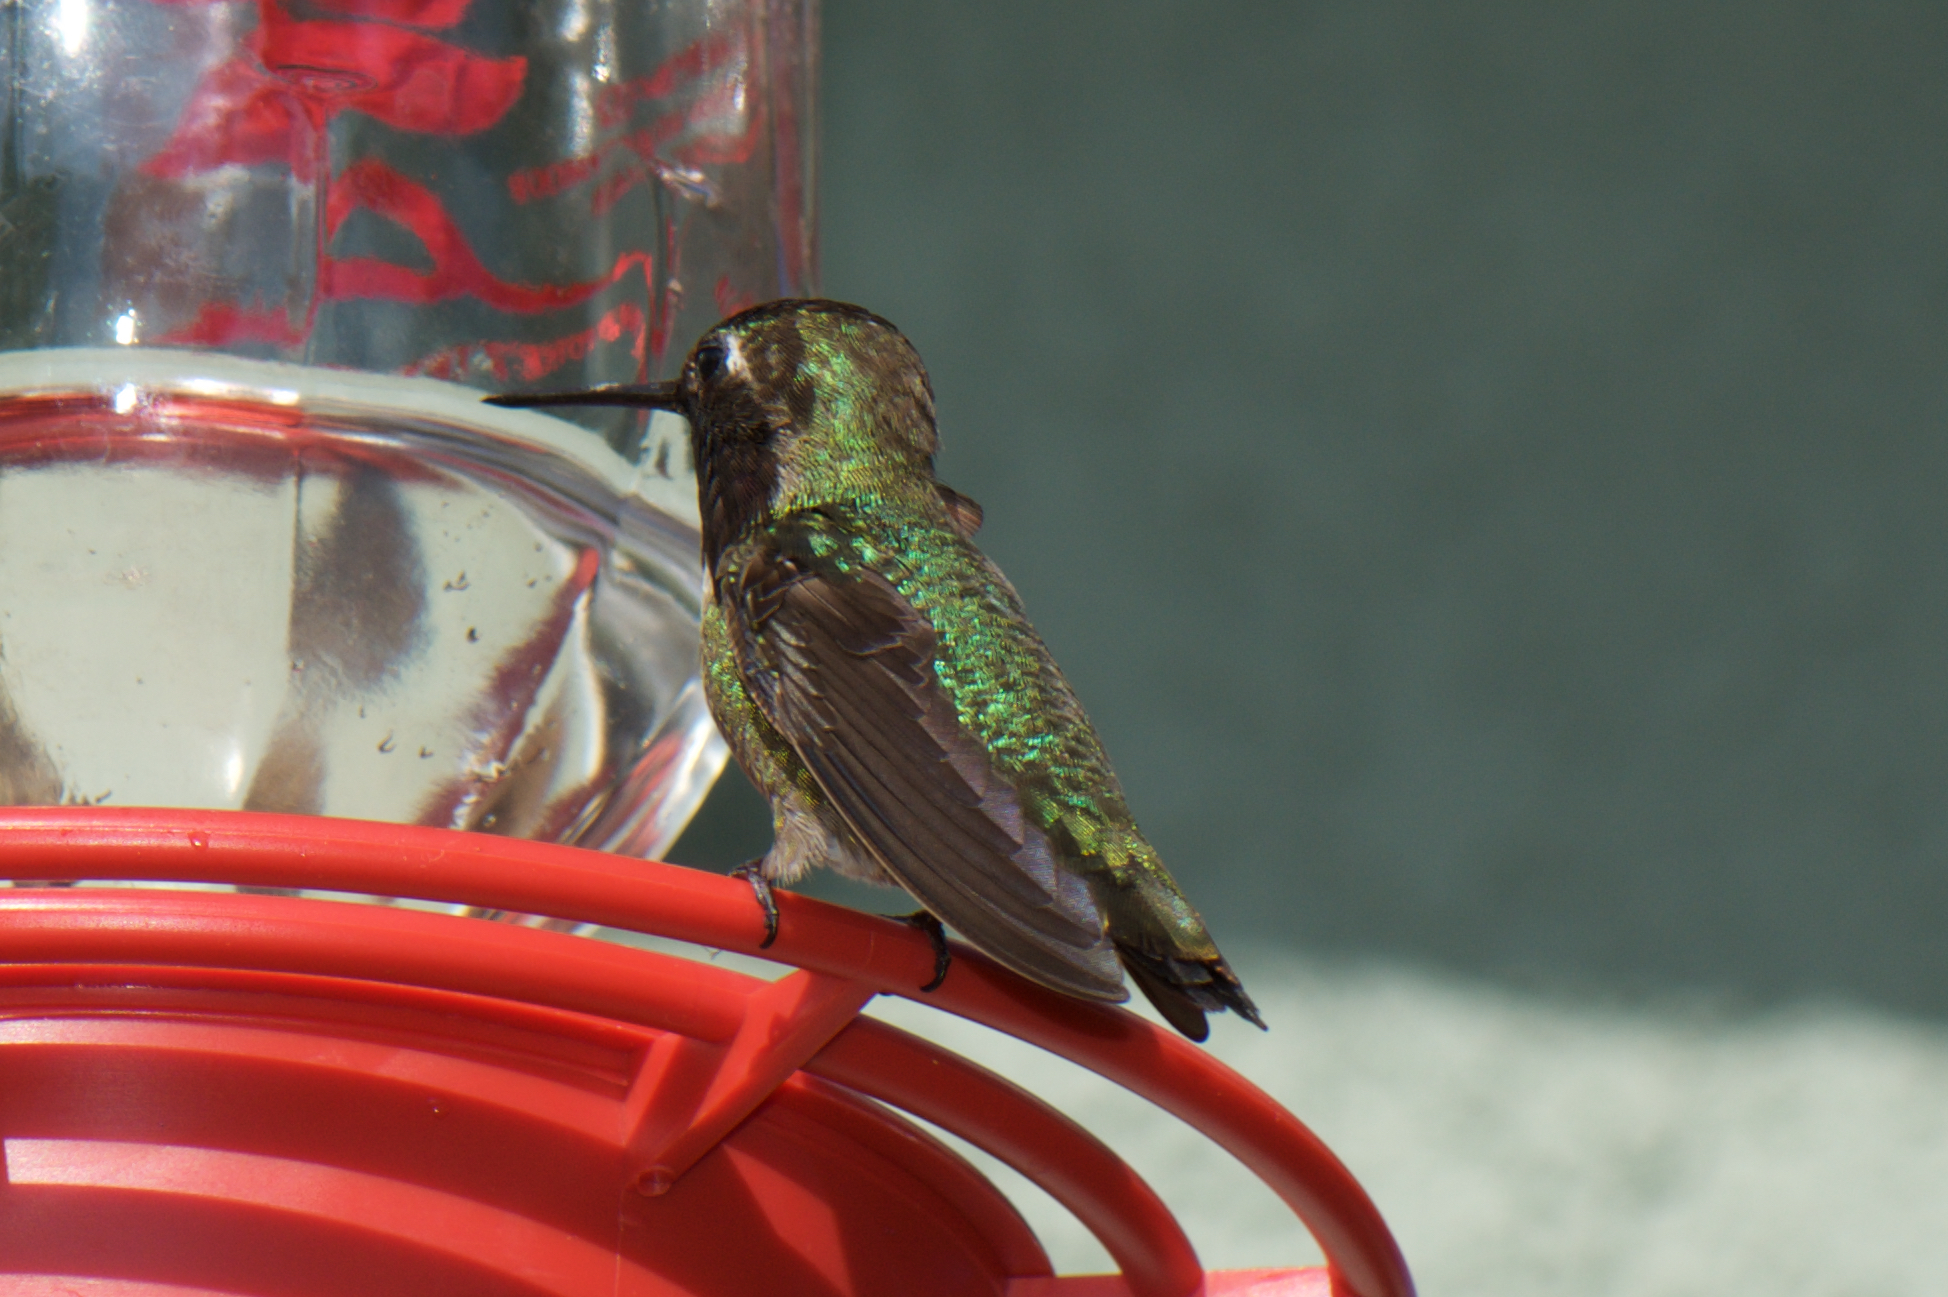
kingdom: Animalia
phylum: Chordata
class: Aves
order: Apodiformes
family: Trochilidae
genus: Calypte
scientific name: Calypte anna
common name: Anna's hummingbird
